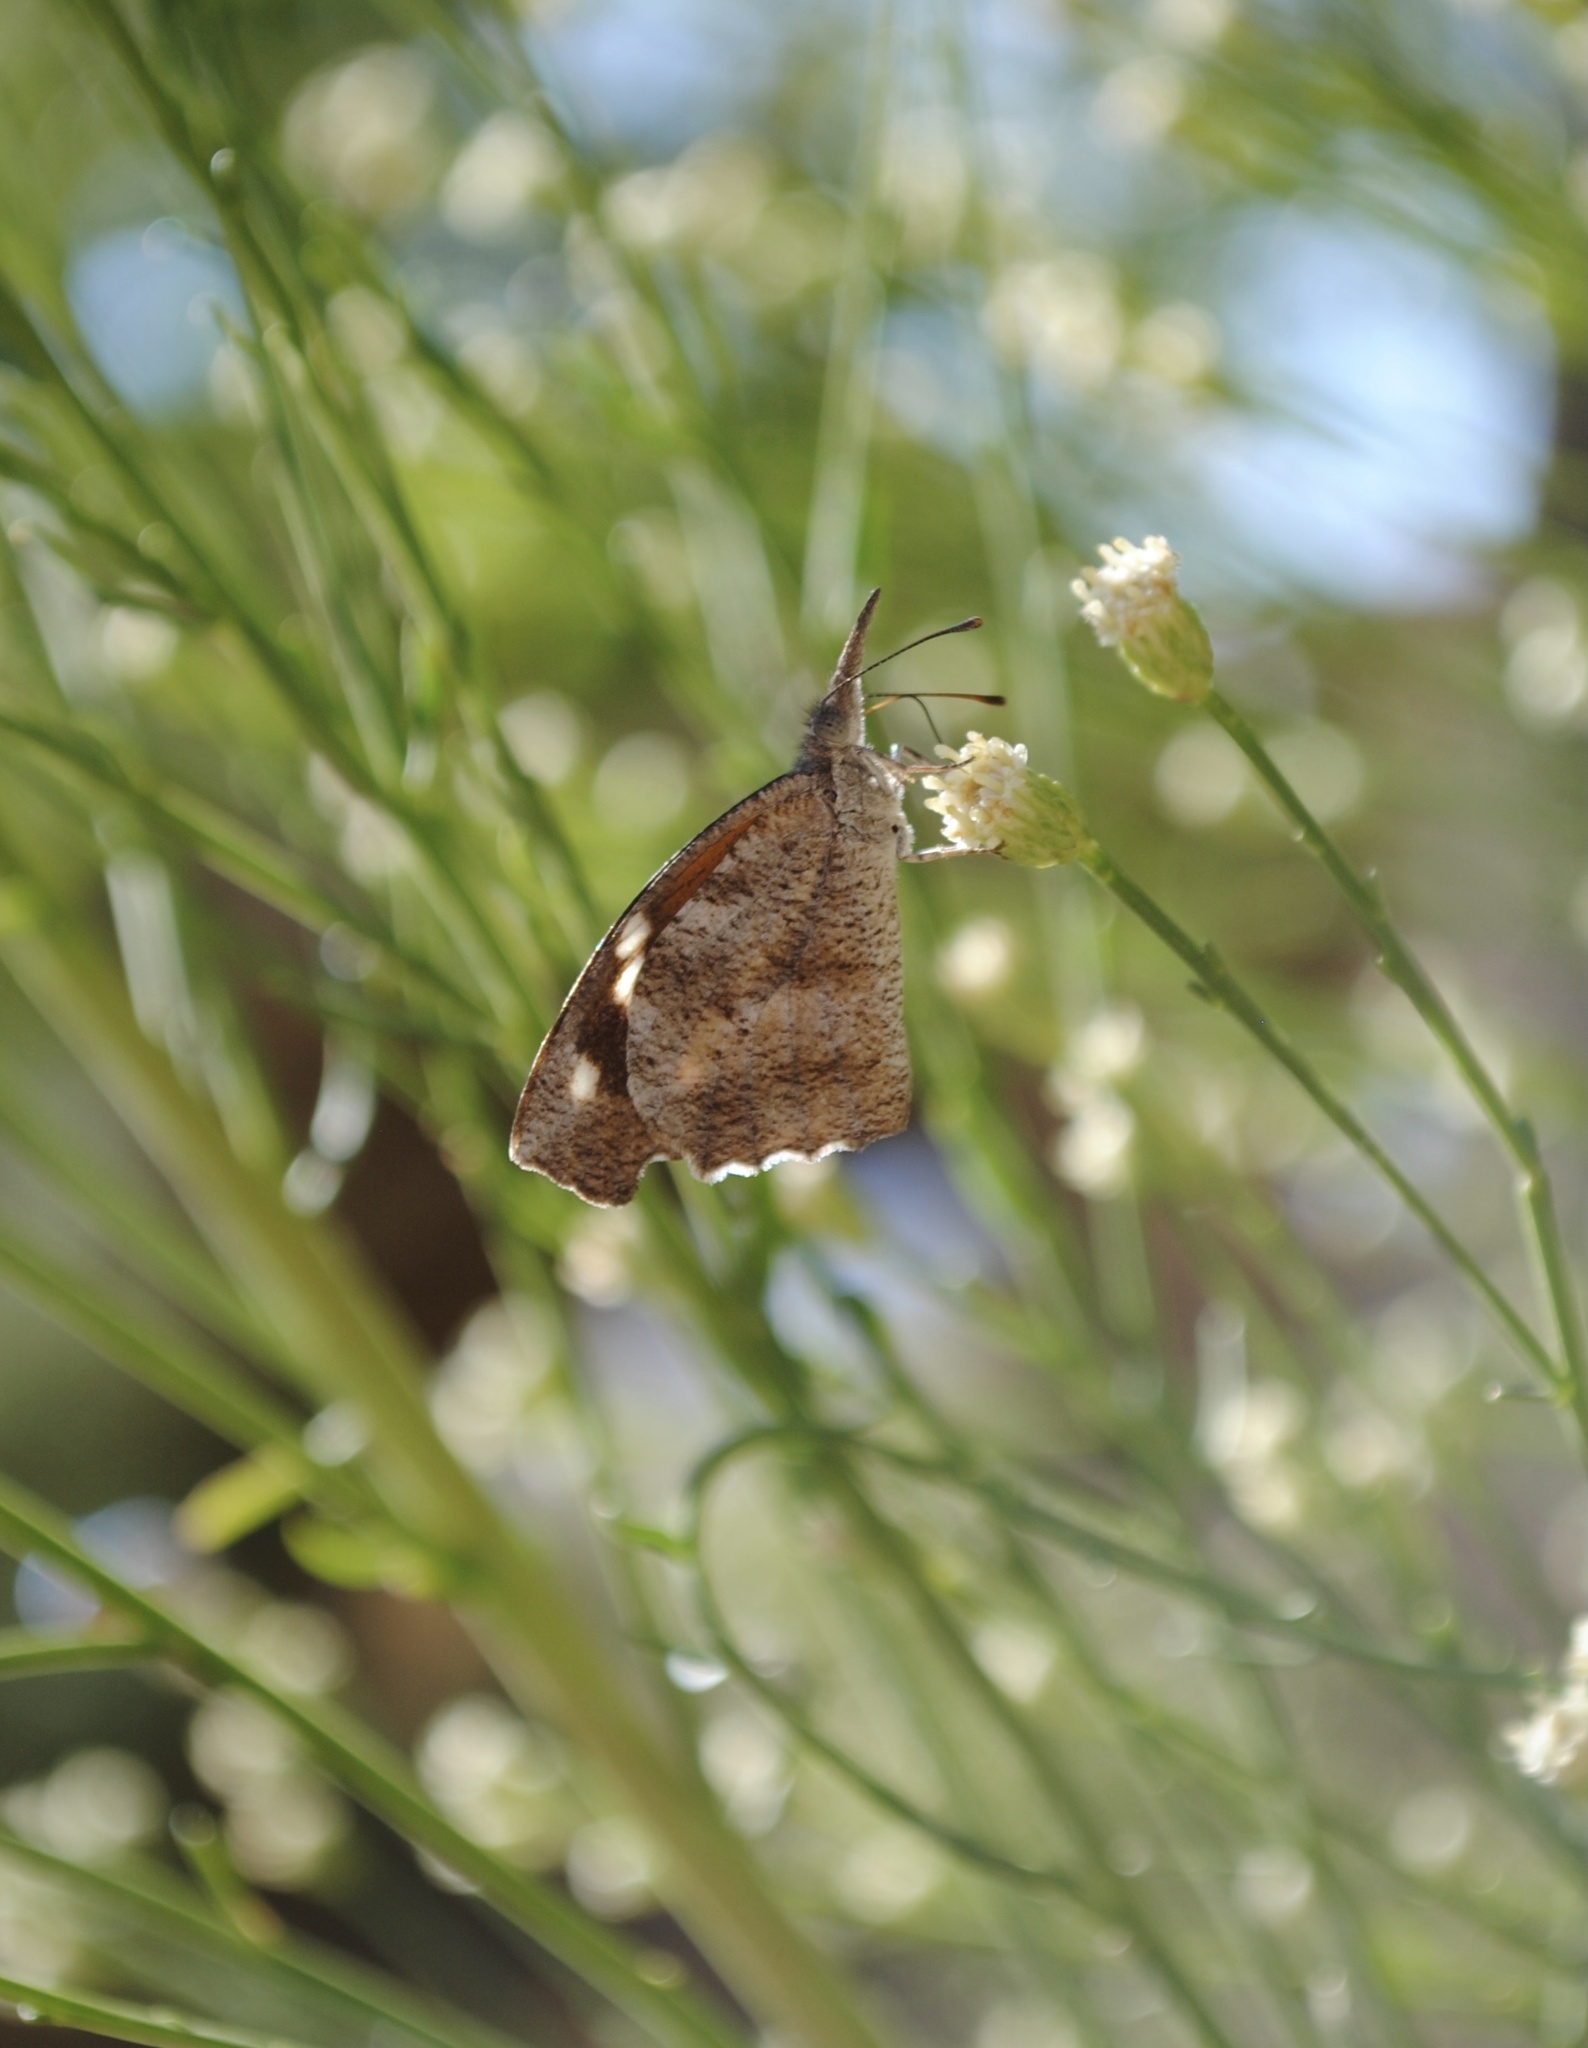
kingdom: Animalia
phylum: Arthropoda
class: Insecta
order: Lepidoptera
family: Nymphalidae
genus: Libytheana
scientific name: Libytheana carinenta
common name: American snout
